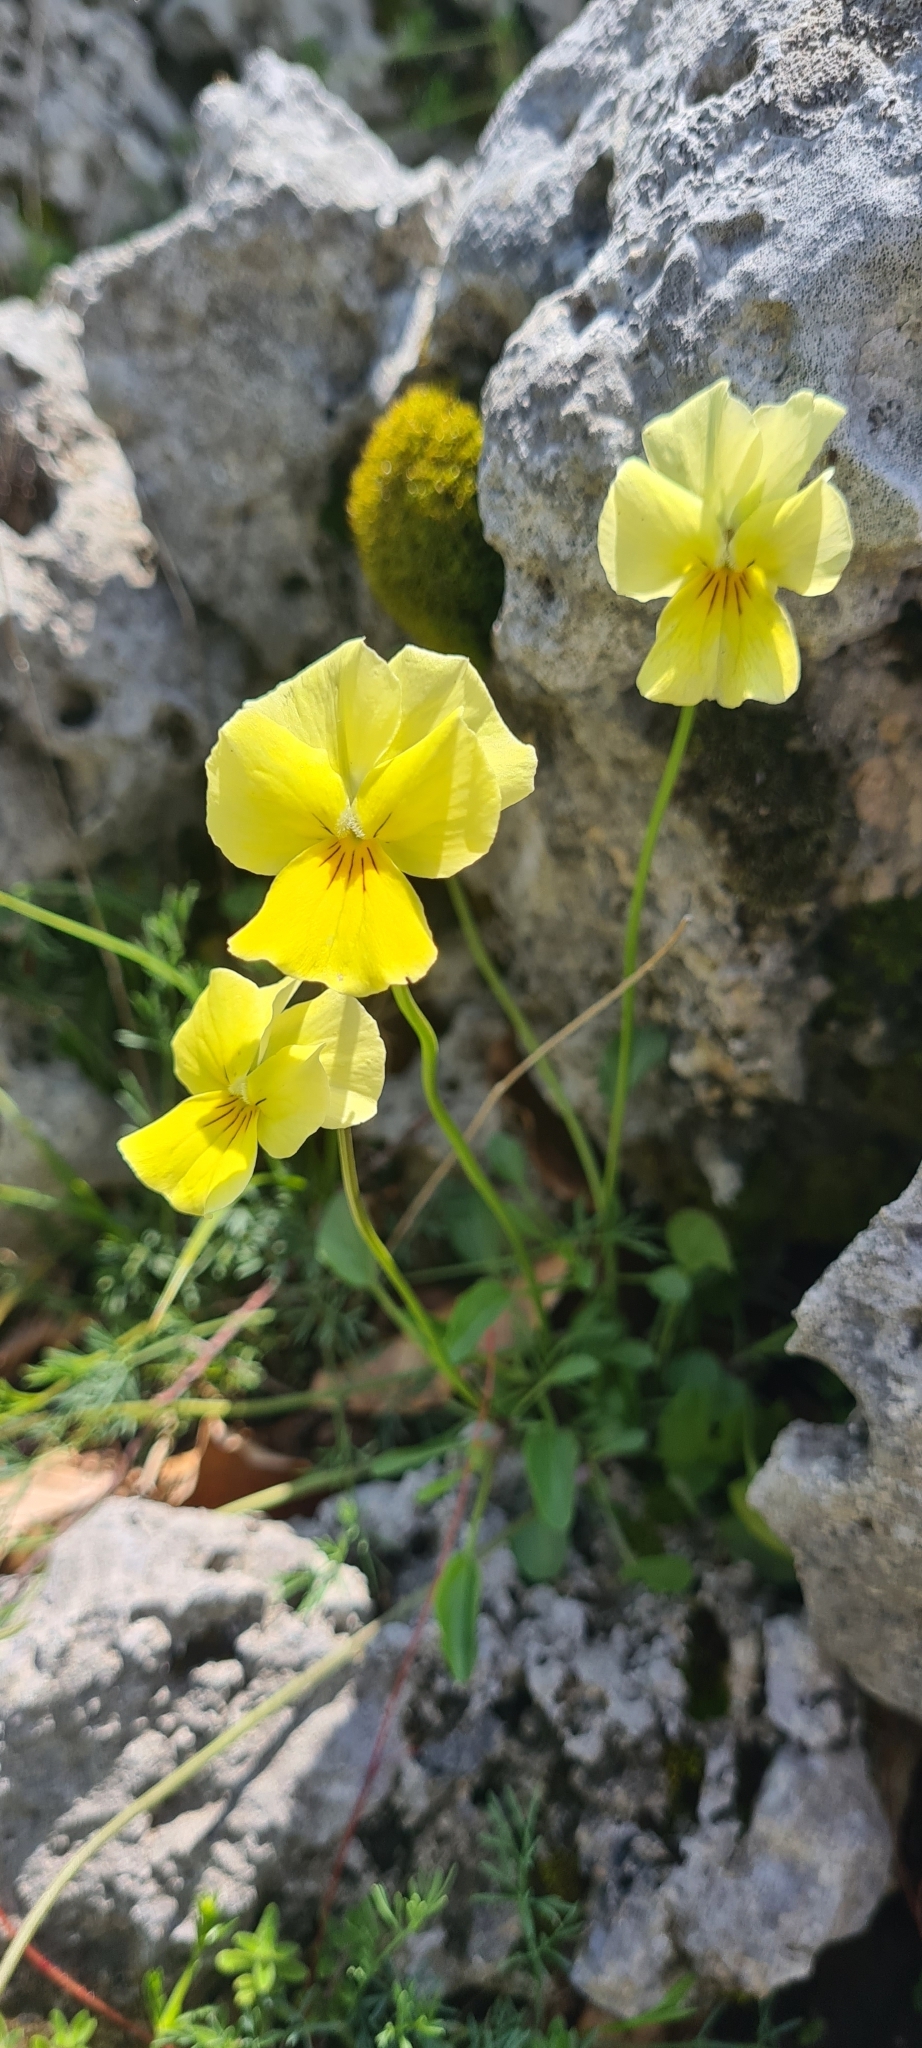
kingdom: Plantae
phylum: Tracheophyta
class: Magnoliopsida
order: Malpighiales
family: Violaceae
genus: Viola
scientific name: Viola eugeniae
